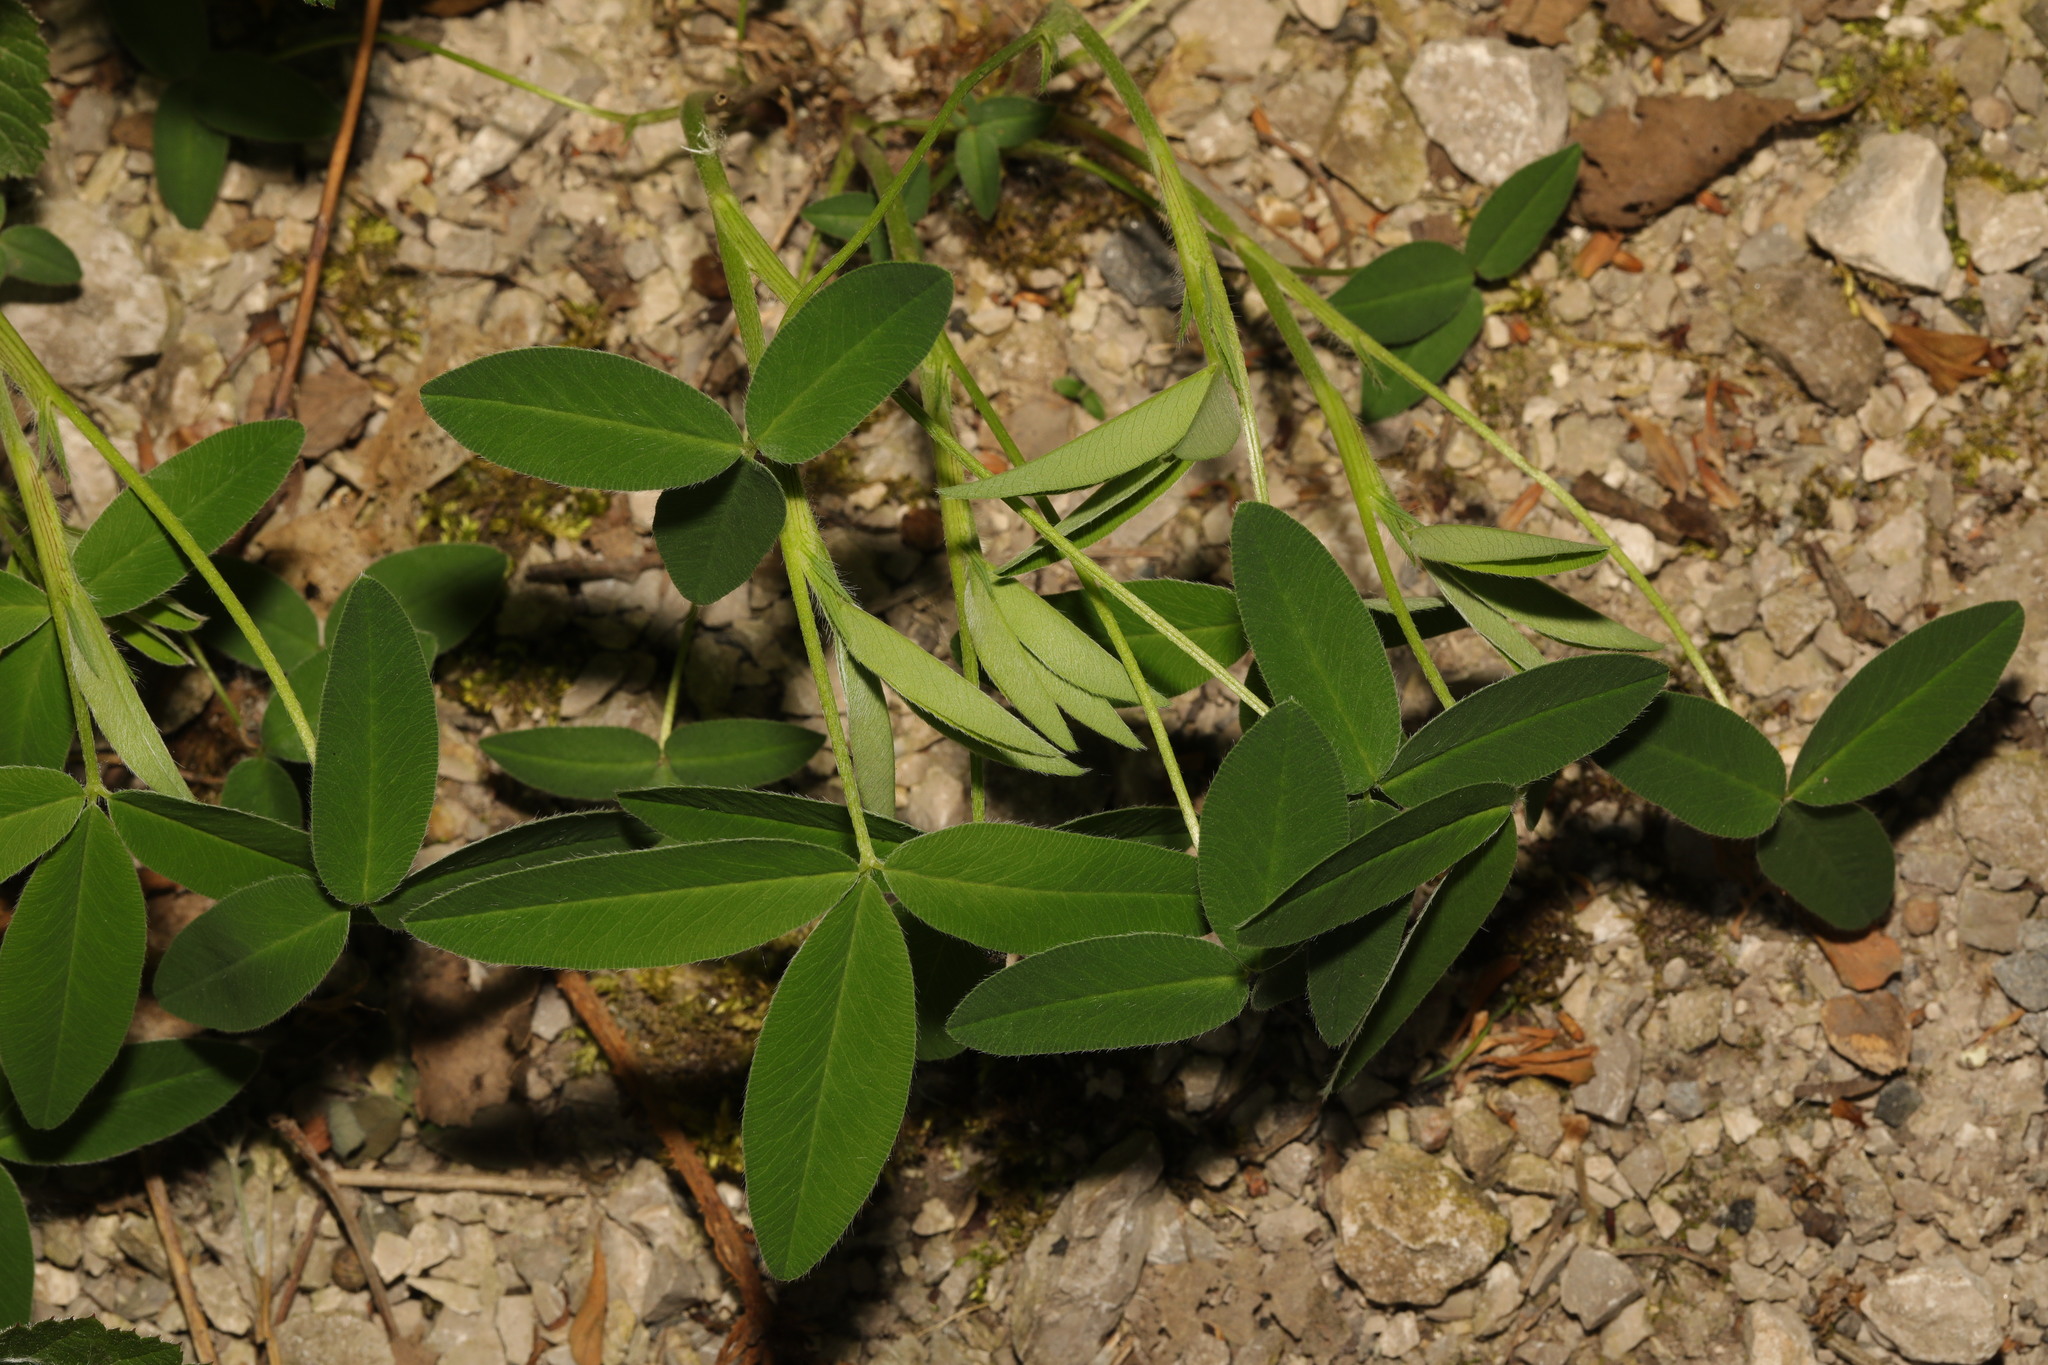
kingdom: Plantae
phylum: Tracheophyta
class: Magnoliopsida
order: Fabales
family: Fabaceae
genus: Trifolium
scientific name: Trifolium medium
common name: Zigzag clover
